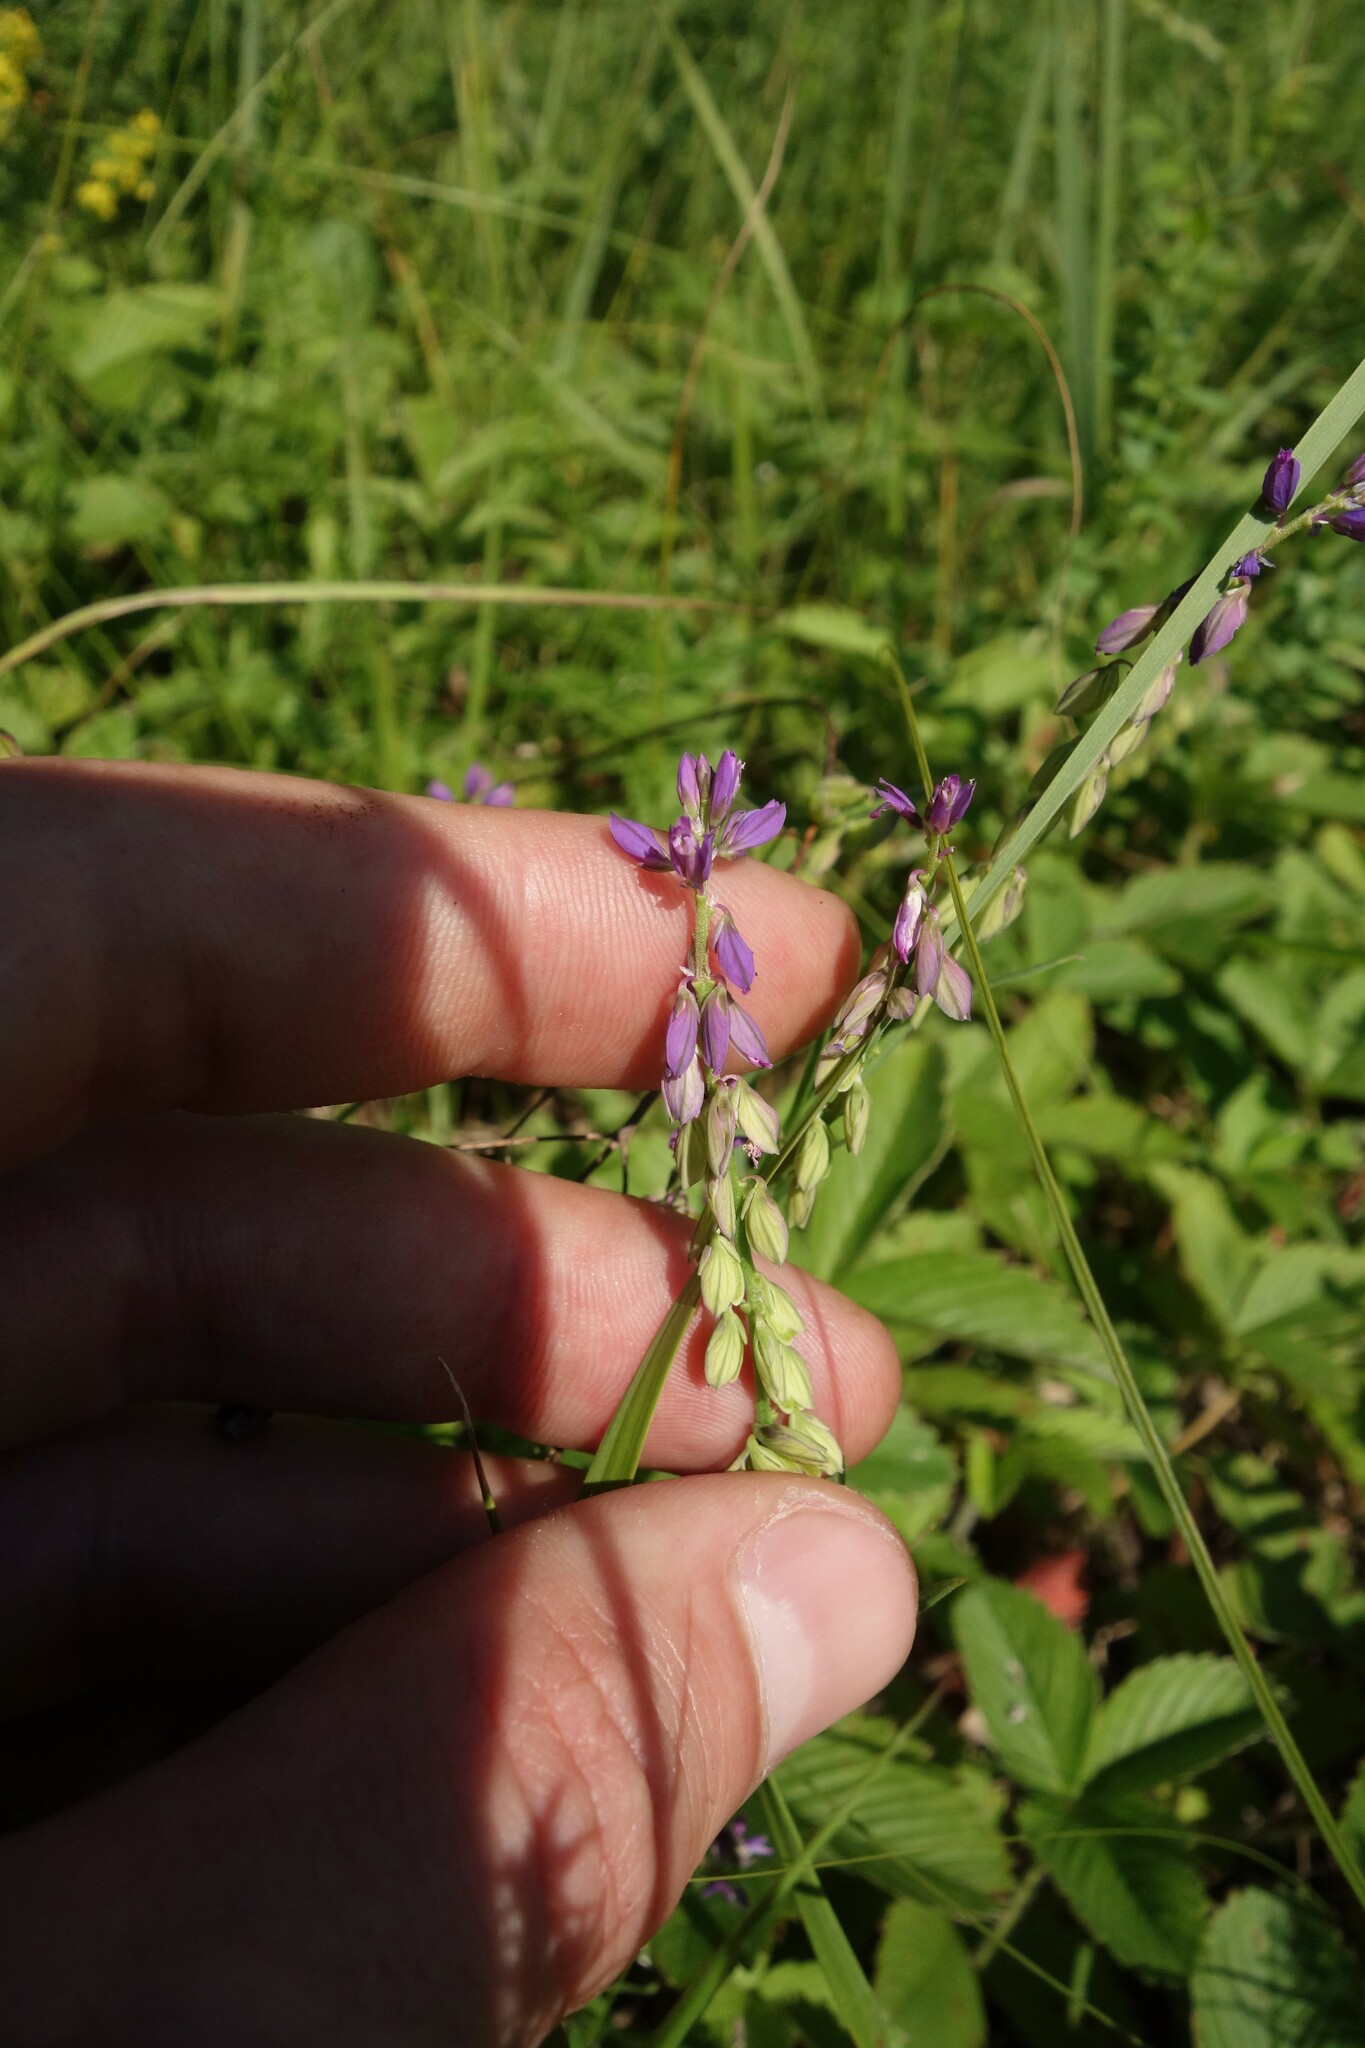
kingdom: Plantae
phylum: Tracheophyta
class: Magnoliopsida
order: Fabales
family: Polygalaceae
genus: Polygala
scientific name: Polygala comosa
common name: Tufted milkwort
